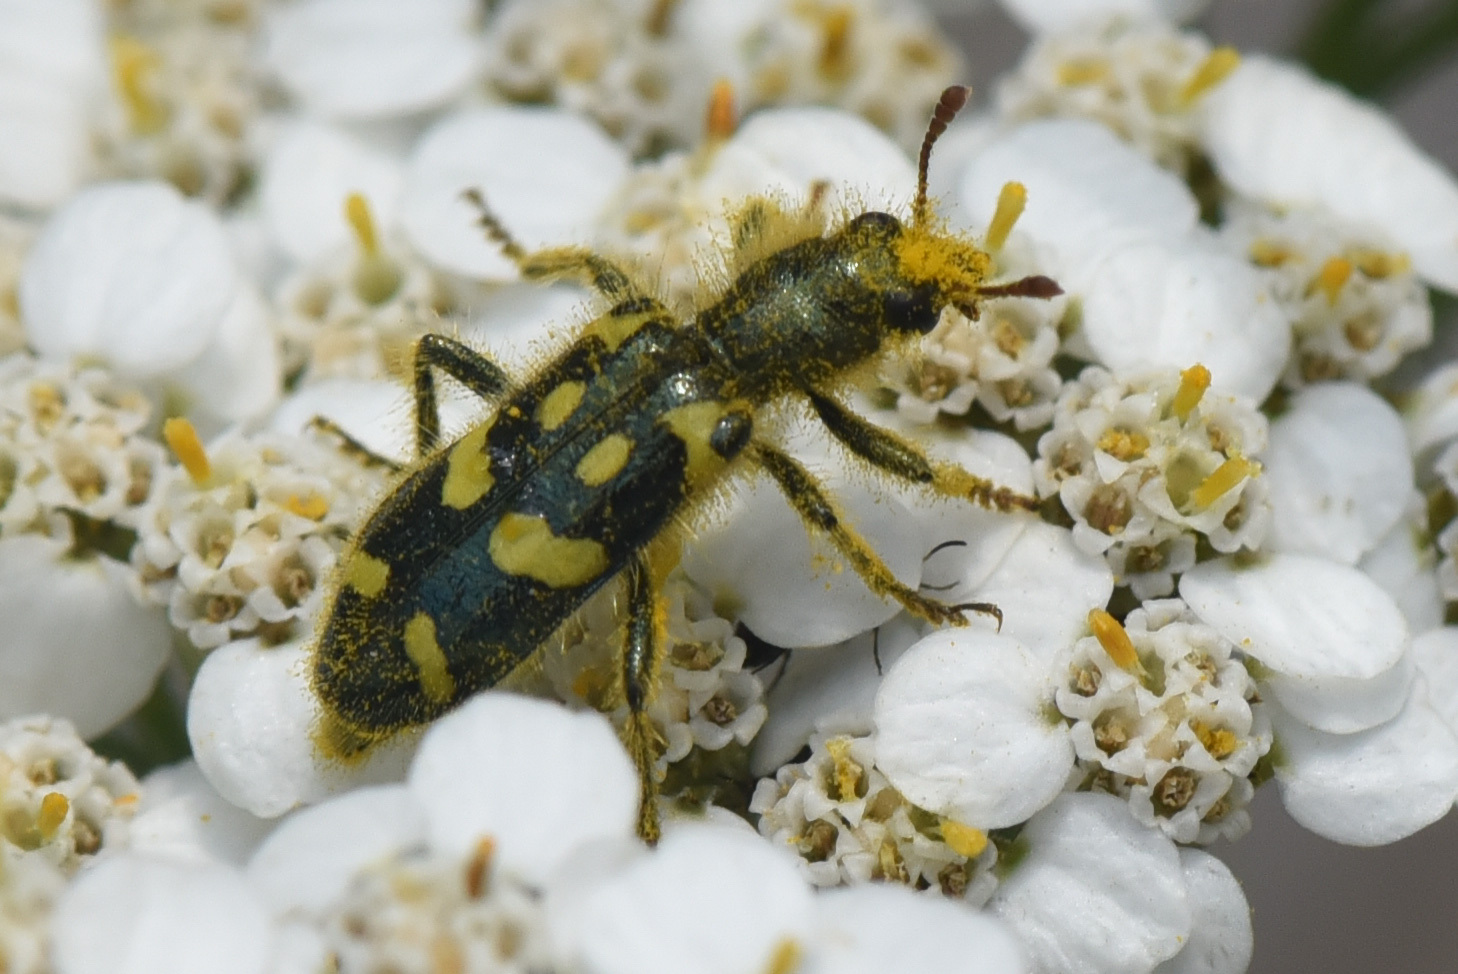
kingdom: Animalia
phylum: Arthropoda
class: Insecta
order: Coleoptera
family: Cleridae
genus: Trichodes
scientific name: Trichodes ornatus
